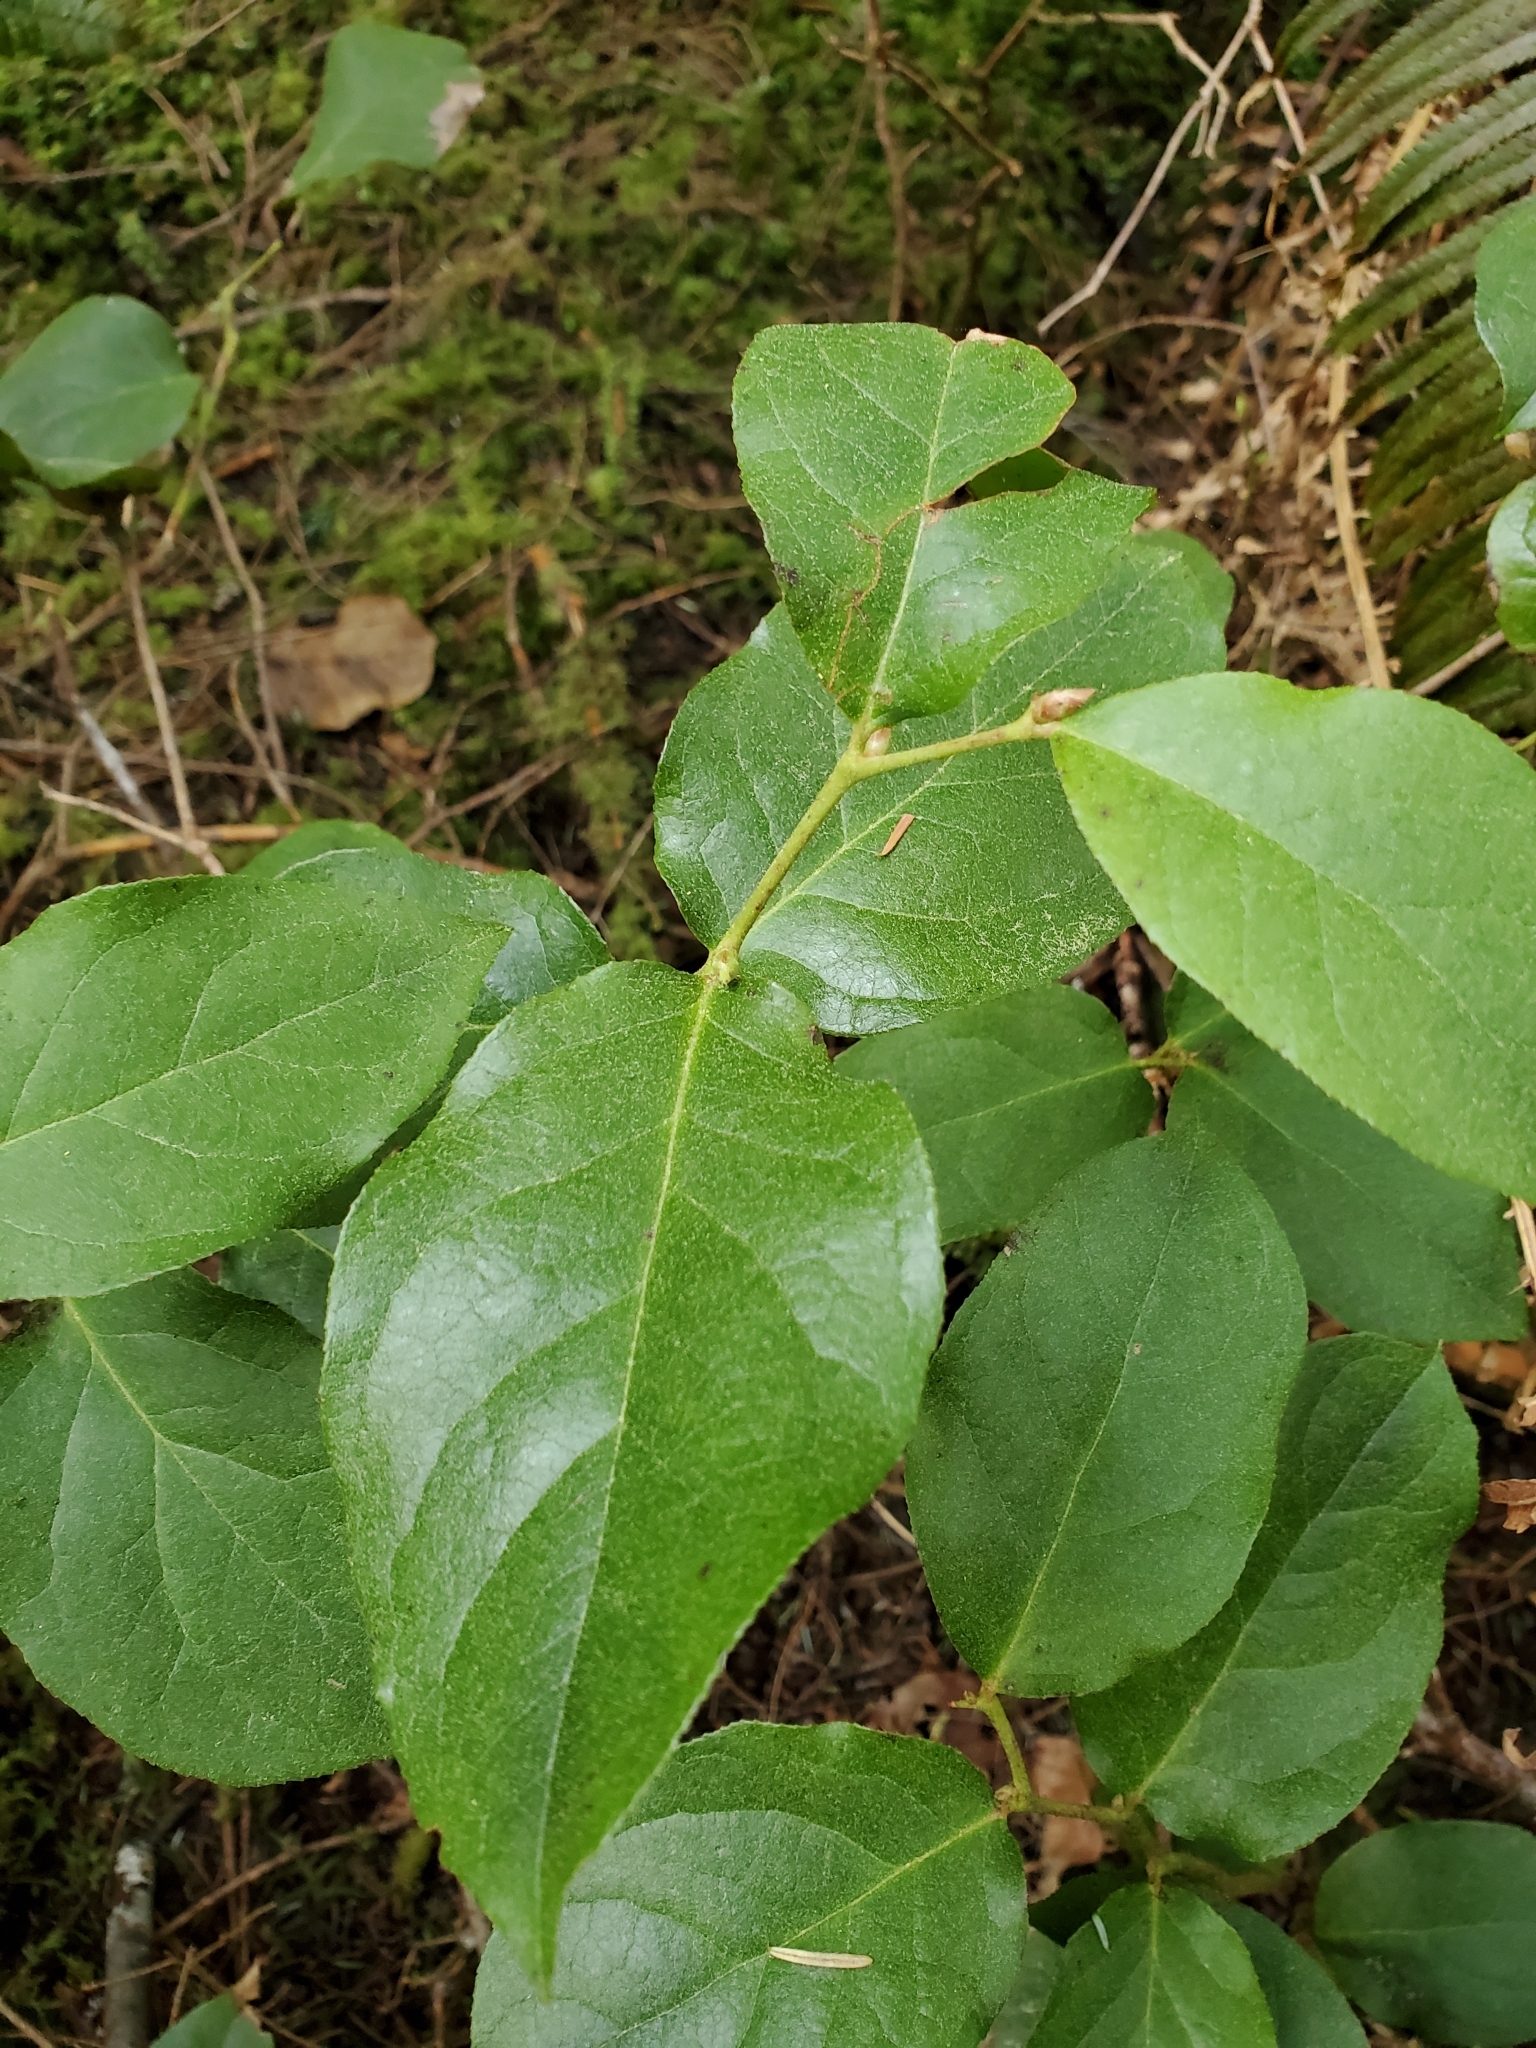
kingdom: Plantae
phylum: Tracheophyta
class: Magnoliopsida
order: Ericales
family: Ericaceae
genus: Gaultheria
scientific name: Gaultheria shallon
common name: Shallon
